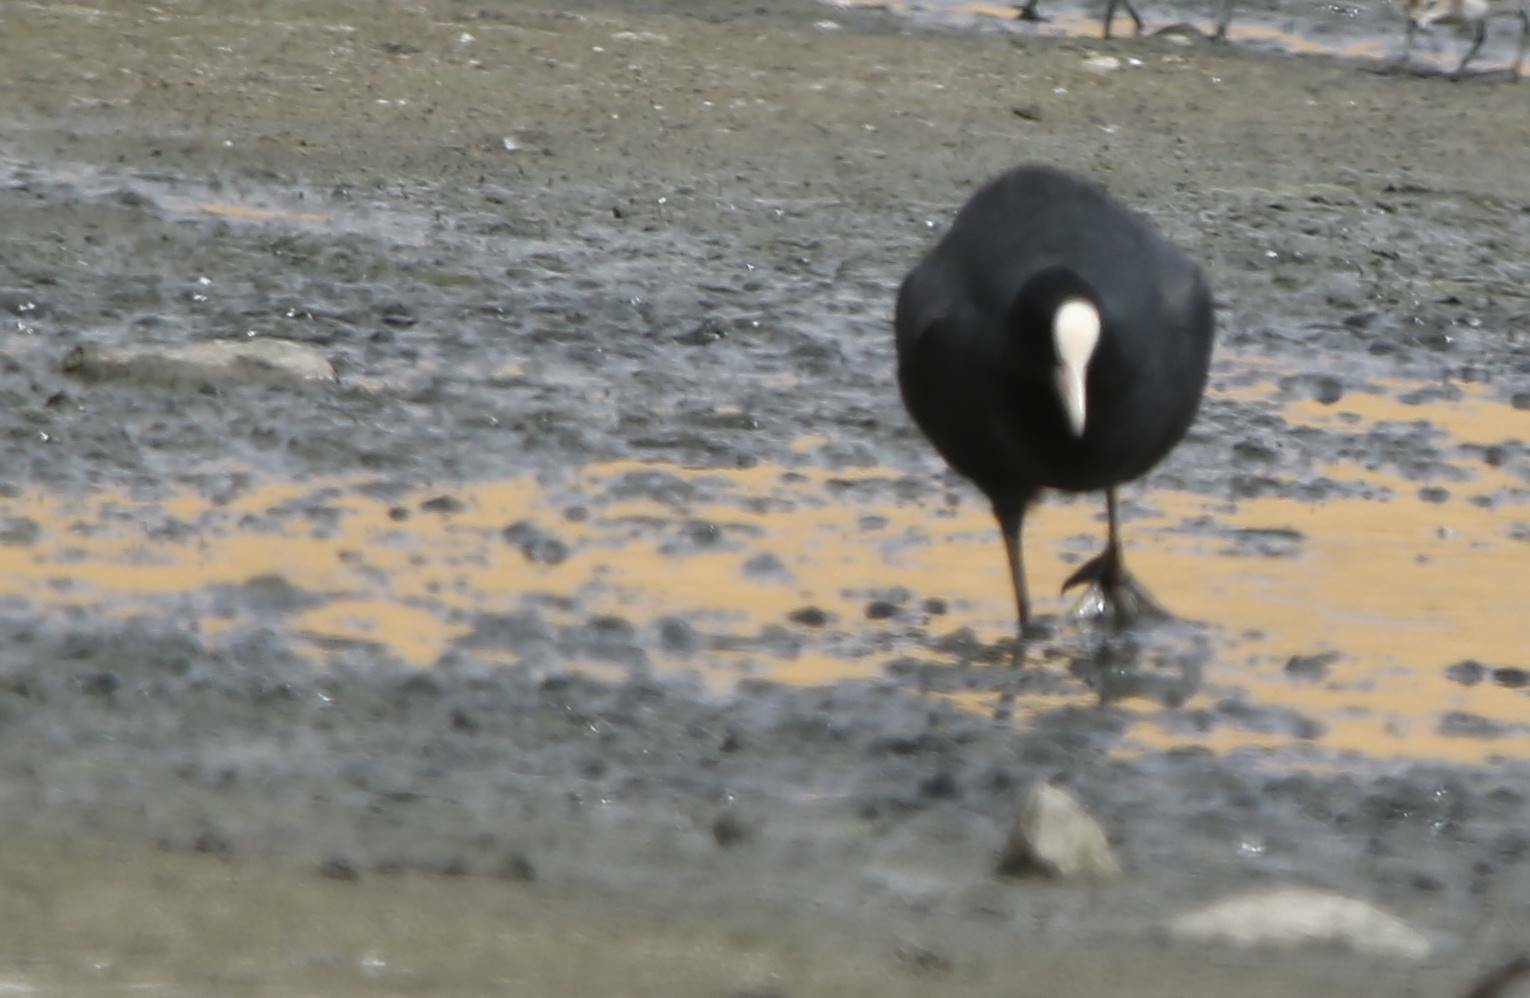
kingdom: Animalia
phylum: Chordata
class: Aves
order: Gruiformes
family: Rallidae
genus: Fulica
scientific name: Fulica atra
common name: Eurasian coot
